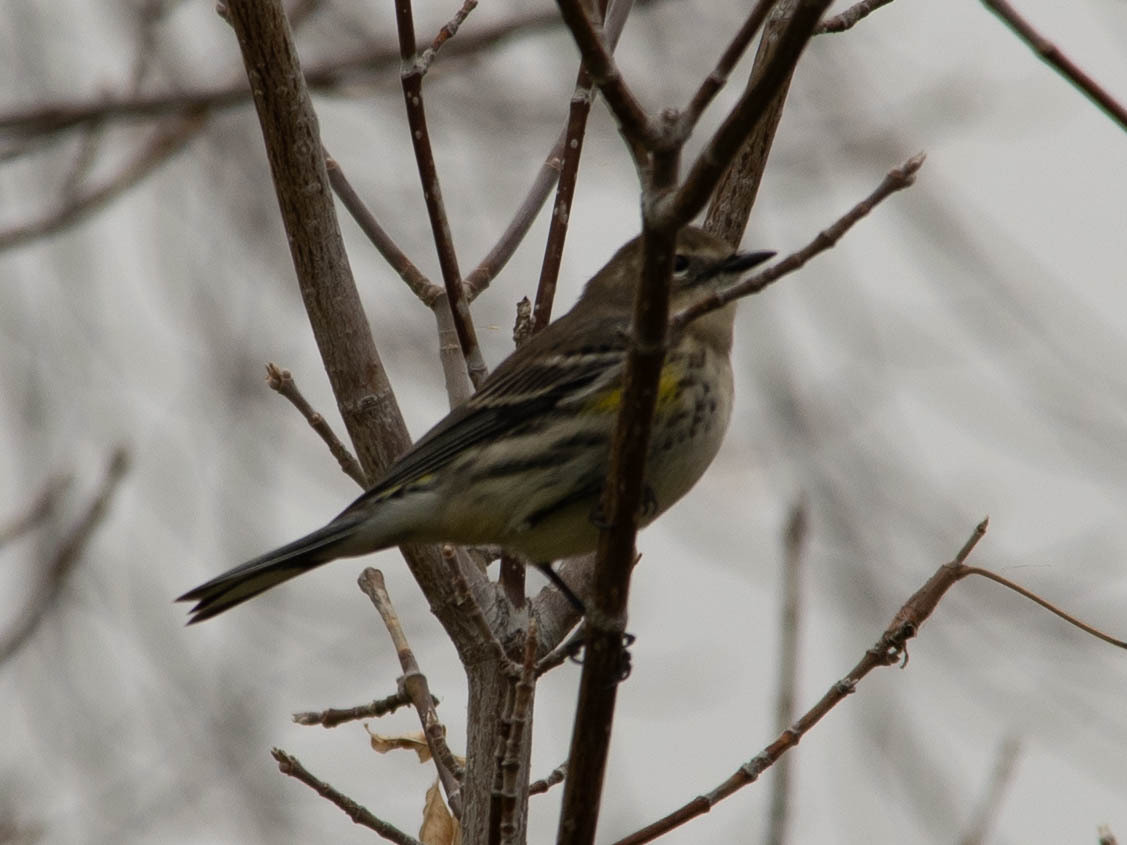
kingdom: Animalia
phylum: Chordata
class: Aves
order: Passeriformes
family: Parulidae
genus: Setophaga
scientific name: Setophaga coronata
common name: Myrtle warbler
